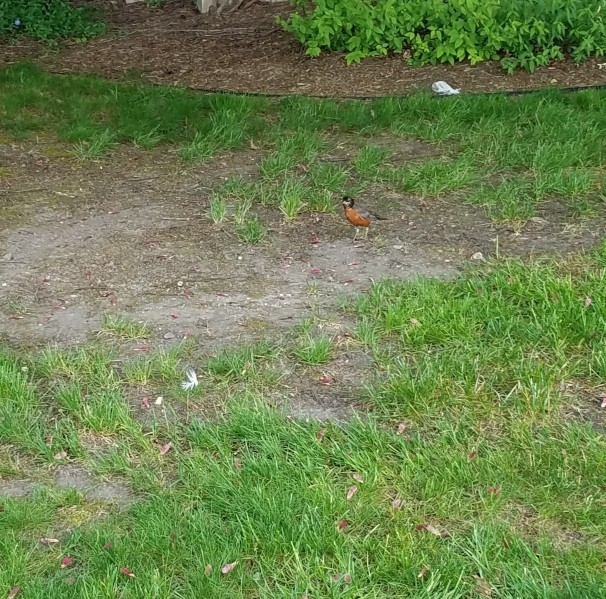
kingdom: Animalia
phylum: Chordata
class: Aves
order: Passeriformes
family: Turdidae
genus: Turdus
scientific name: Turdus migratorius
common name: American robin
